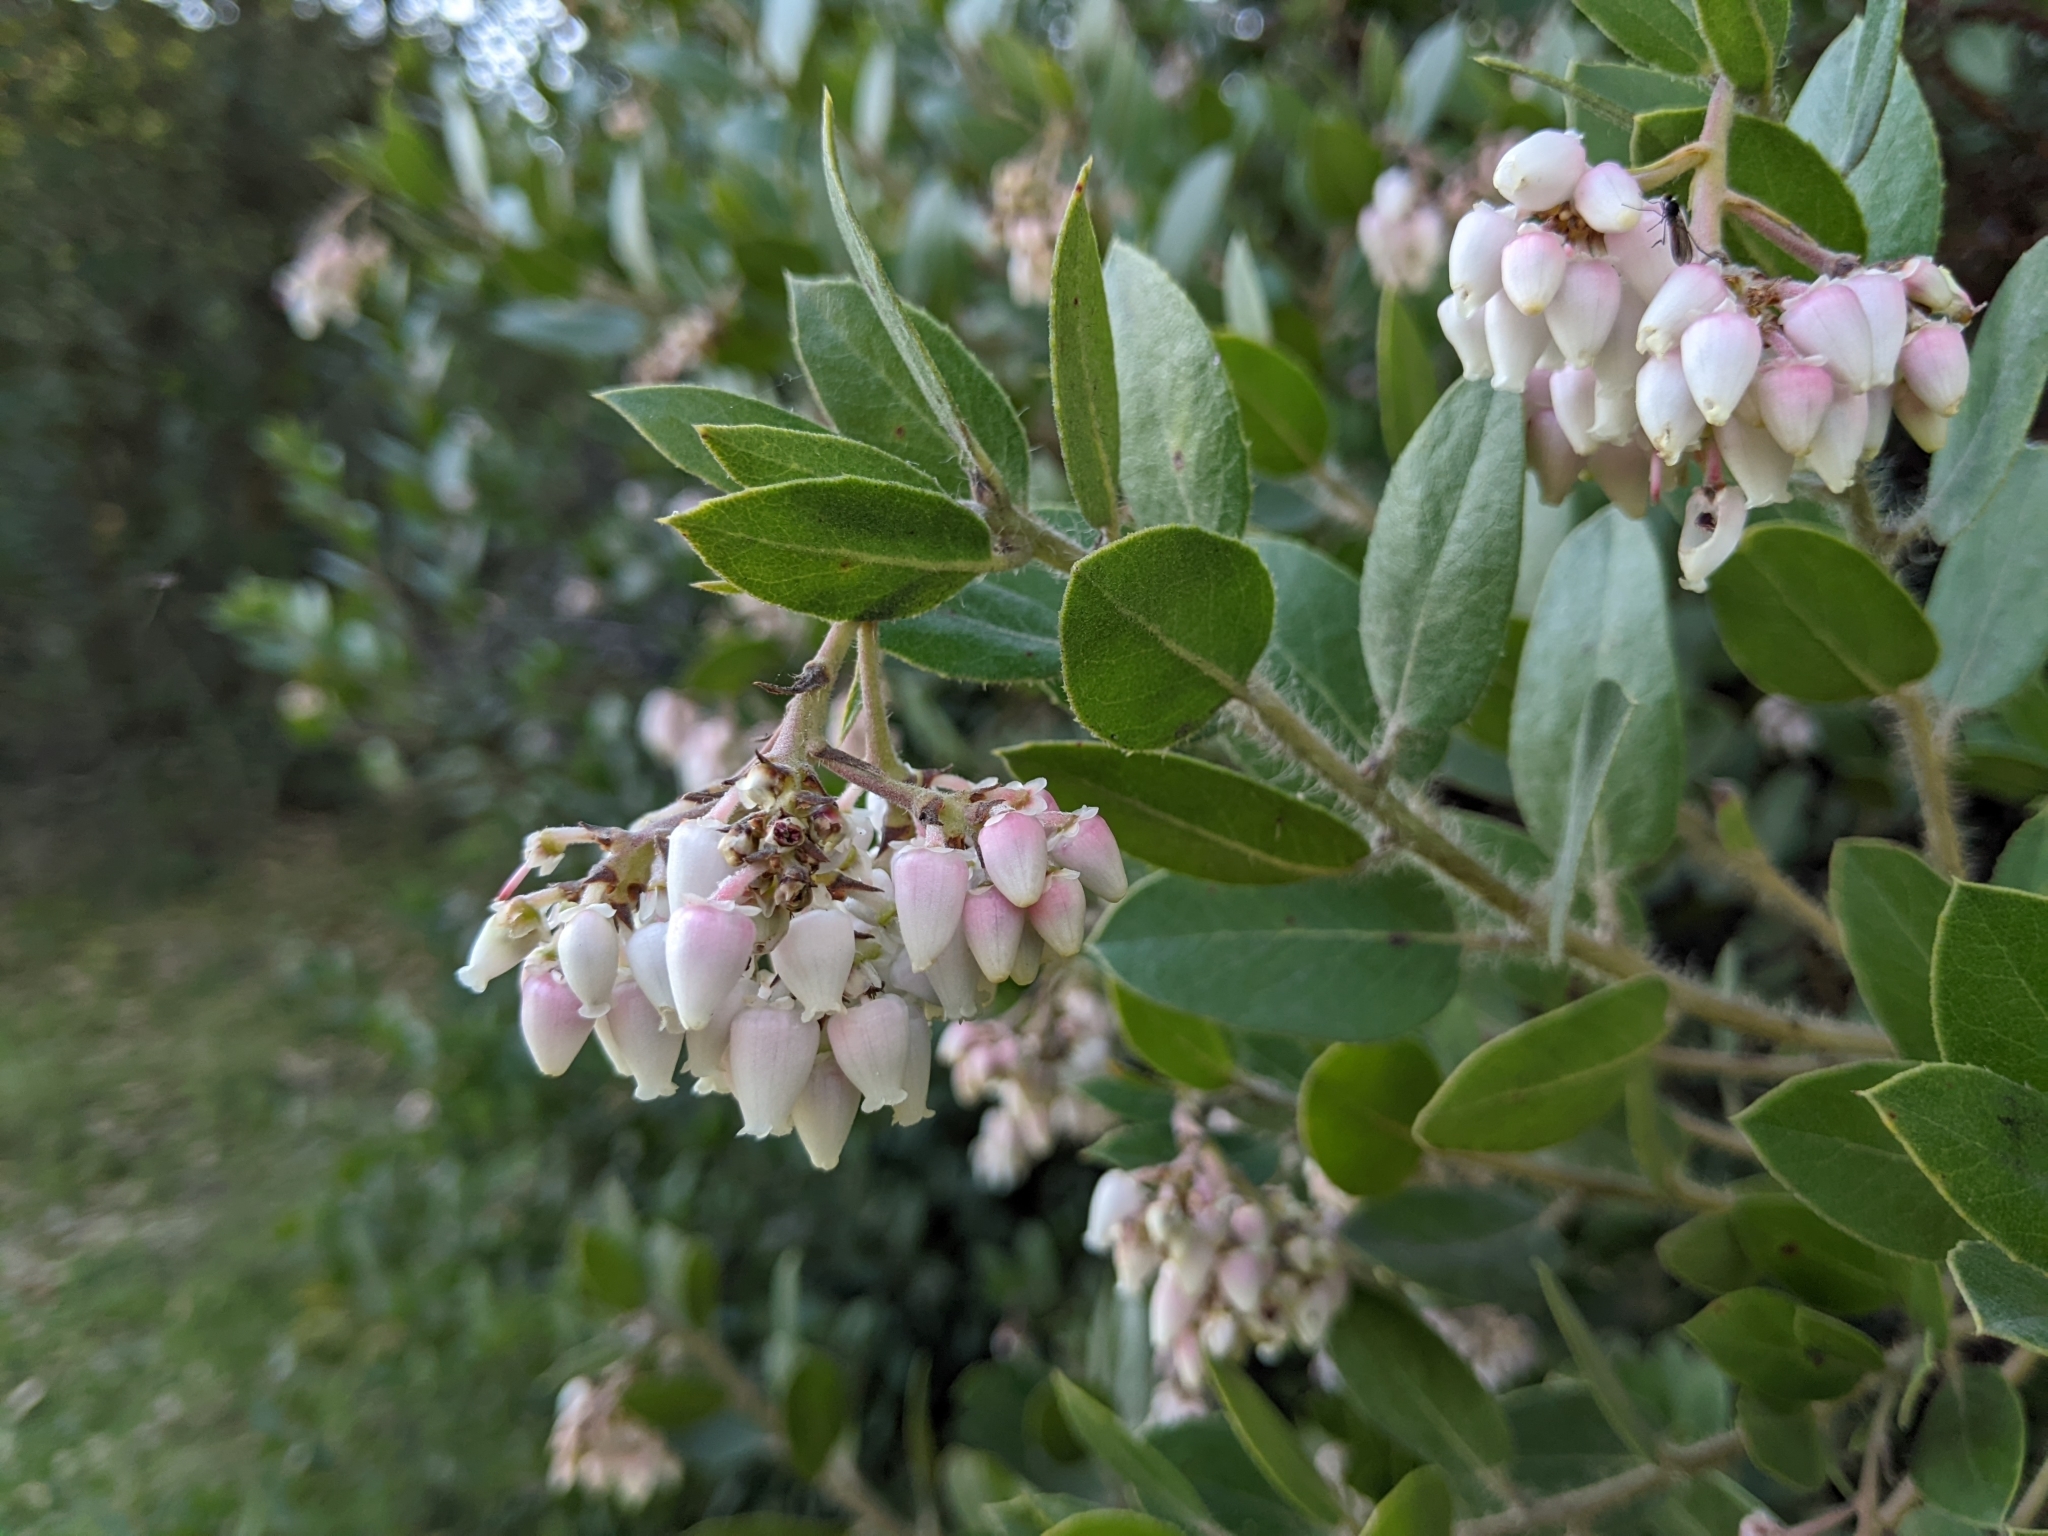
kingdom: Plantae
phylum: Tracheophyta
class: Magnoliopsida
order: Ericales
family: Ericaceae
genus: Arctostaphylos
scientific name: Arctostaphylos crustacea
